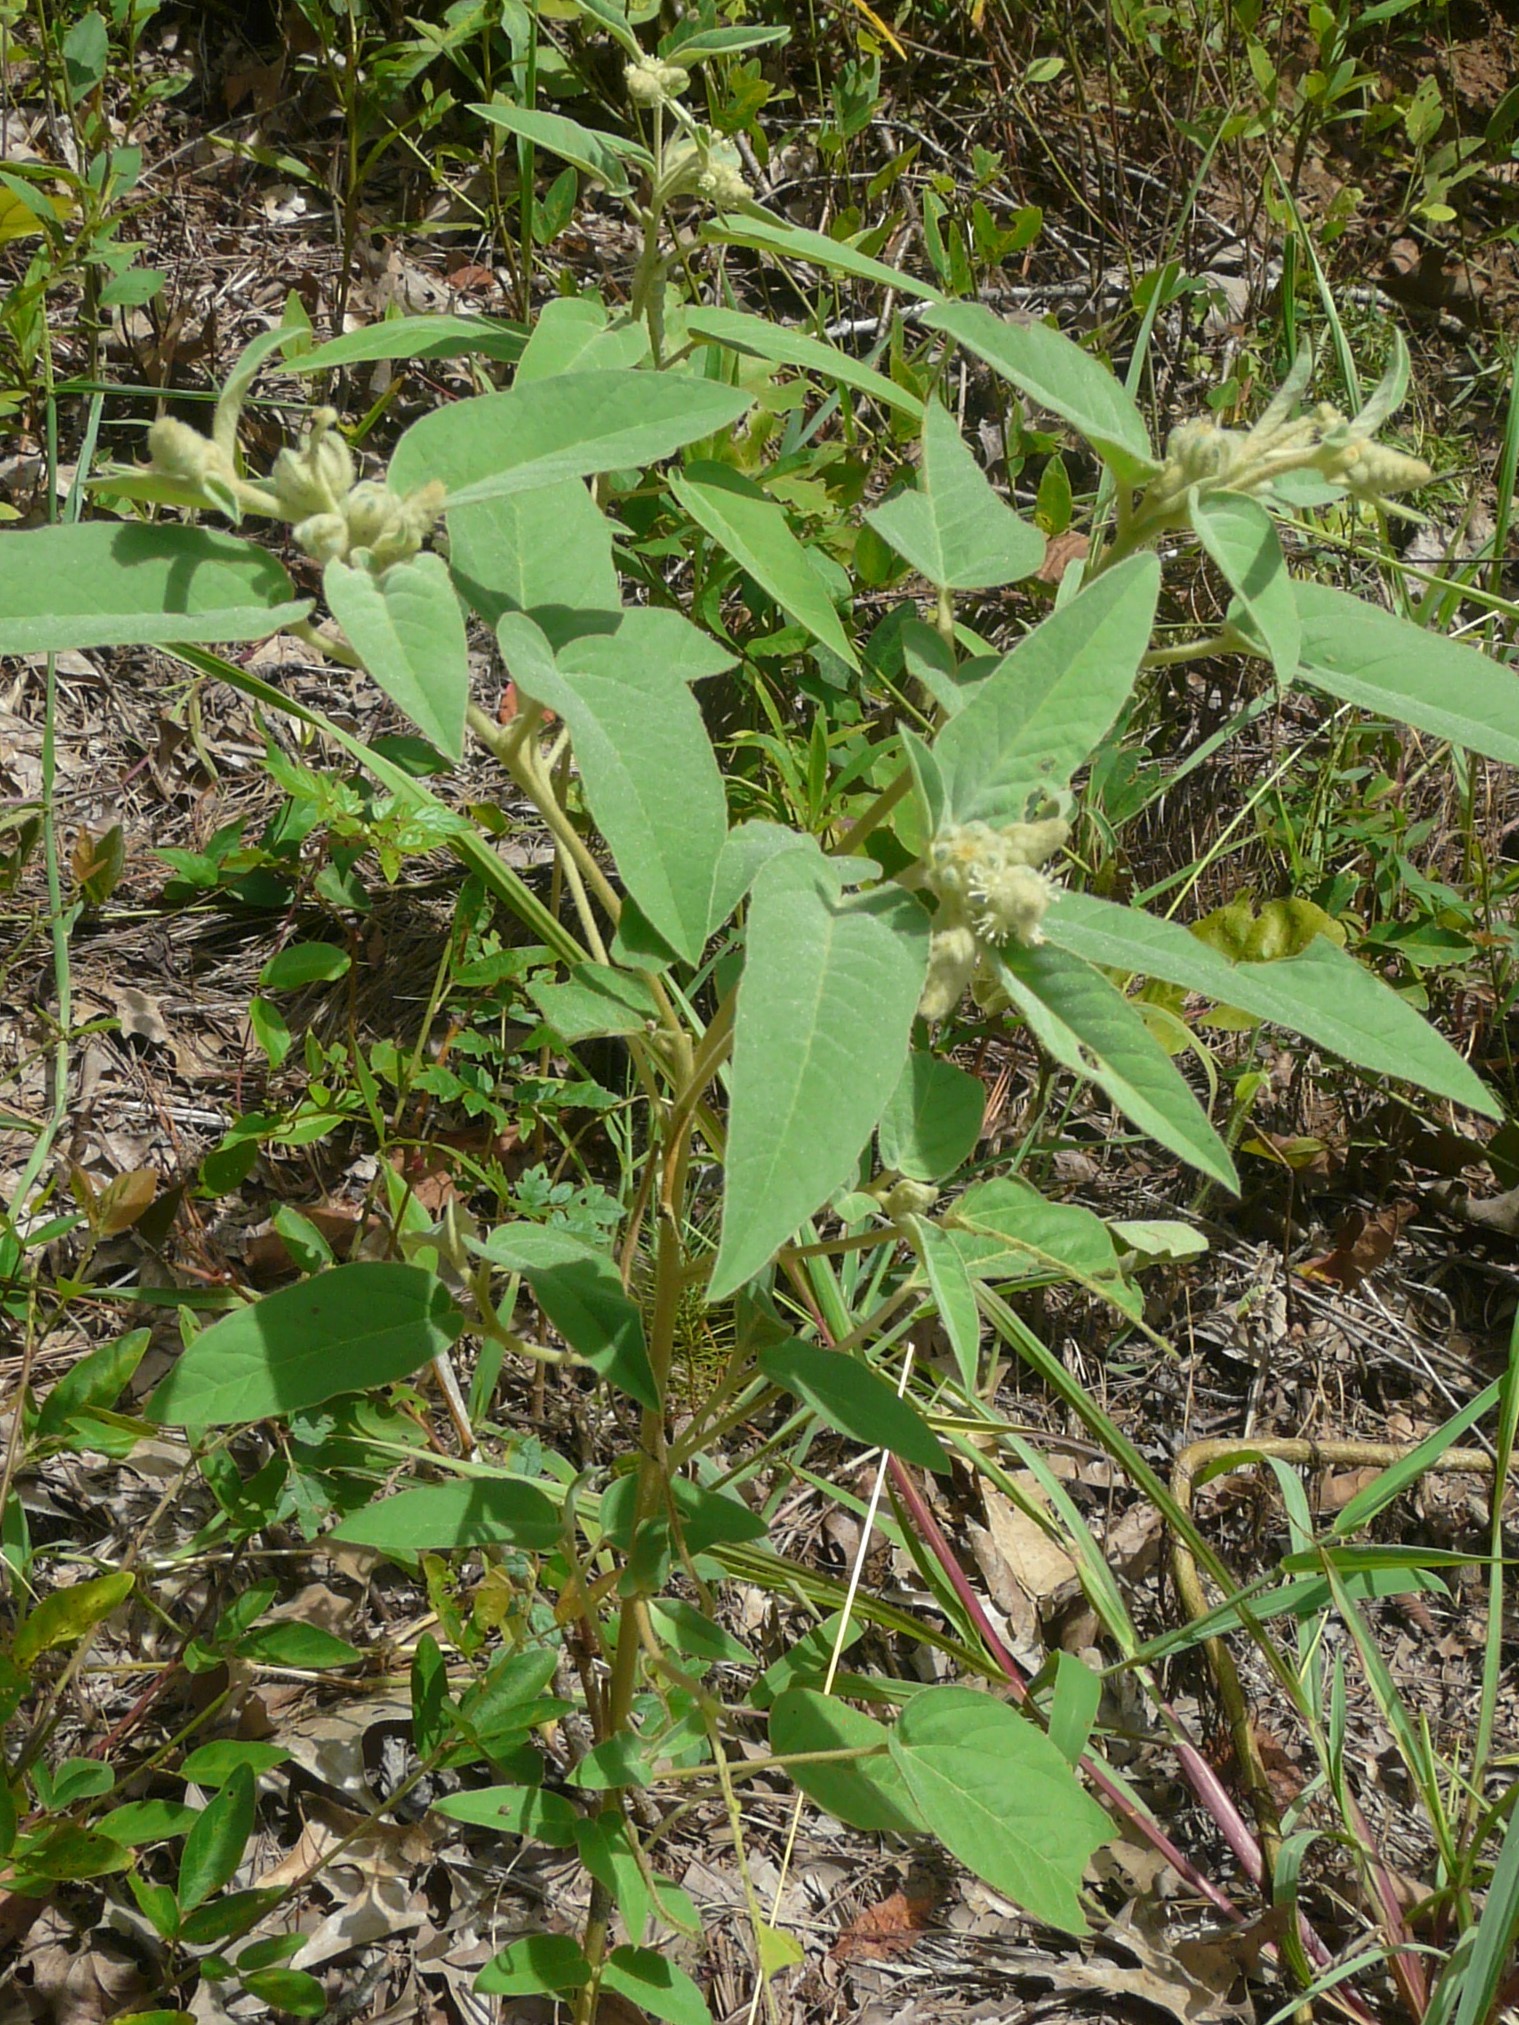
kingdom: Plantae
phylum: Tracheophyta
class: Magnoliopsida
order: Malpighiales
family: Euphorbiaceae
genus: Croton
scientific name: Croton lindheimeri
